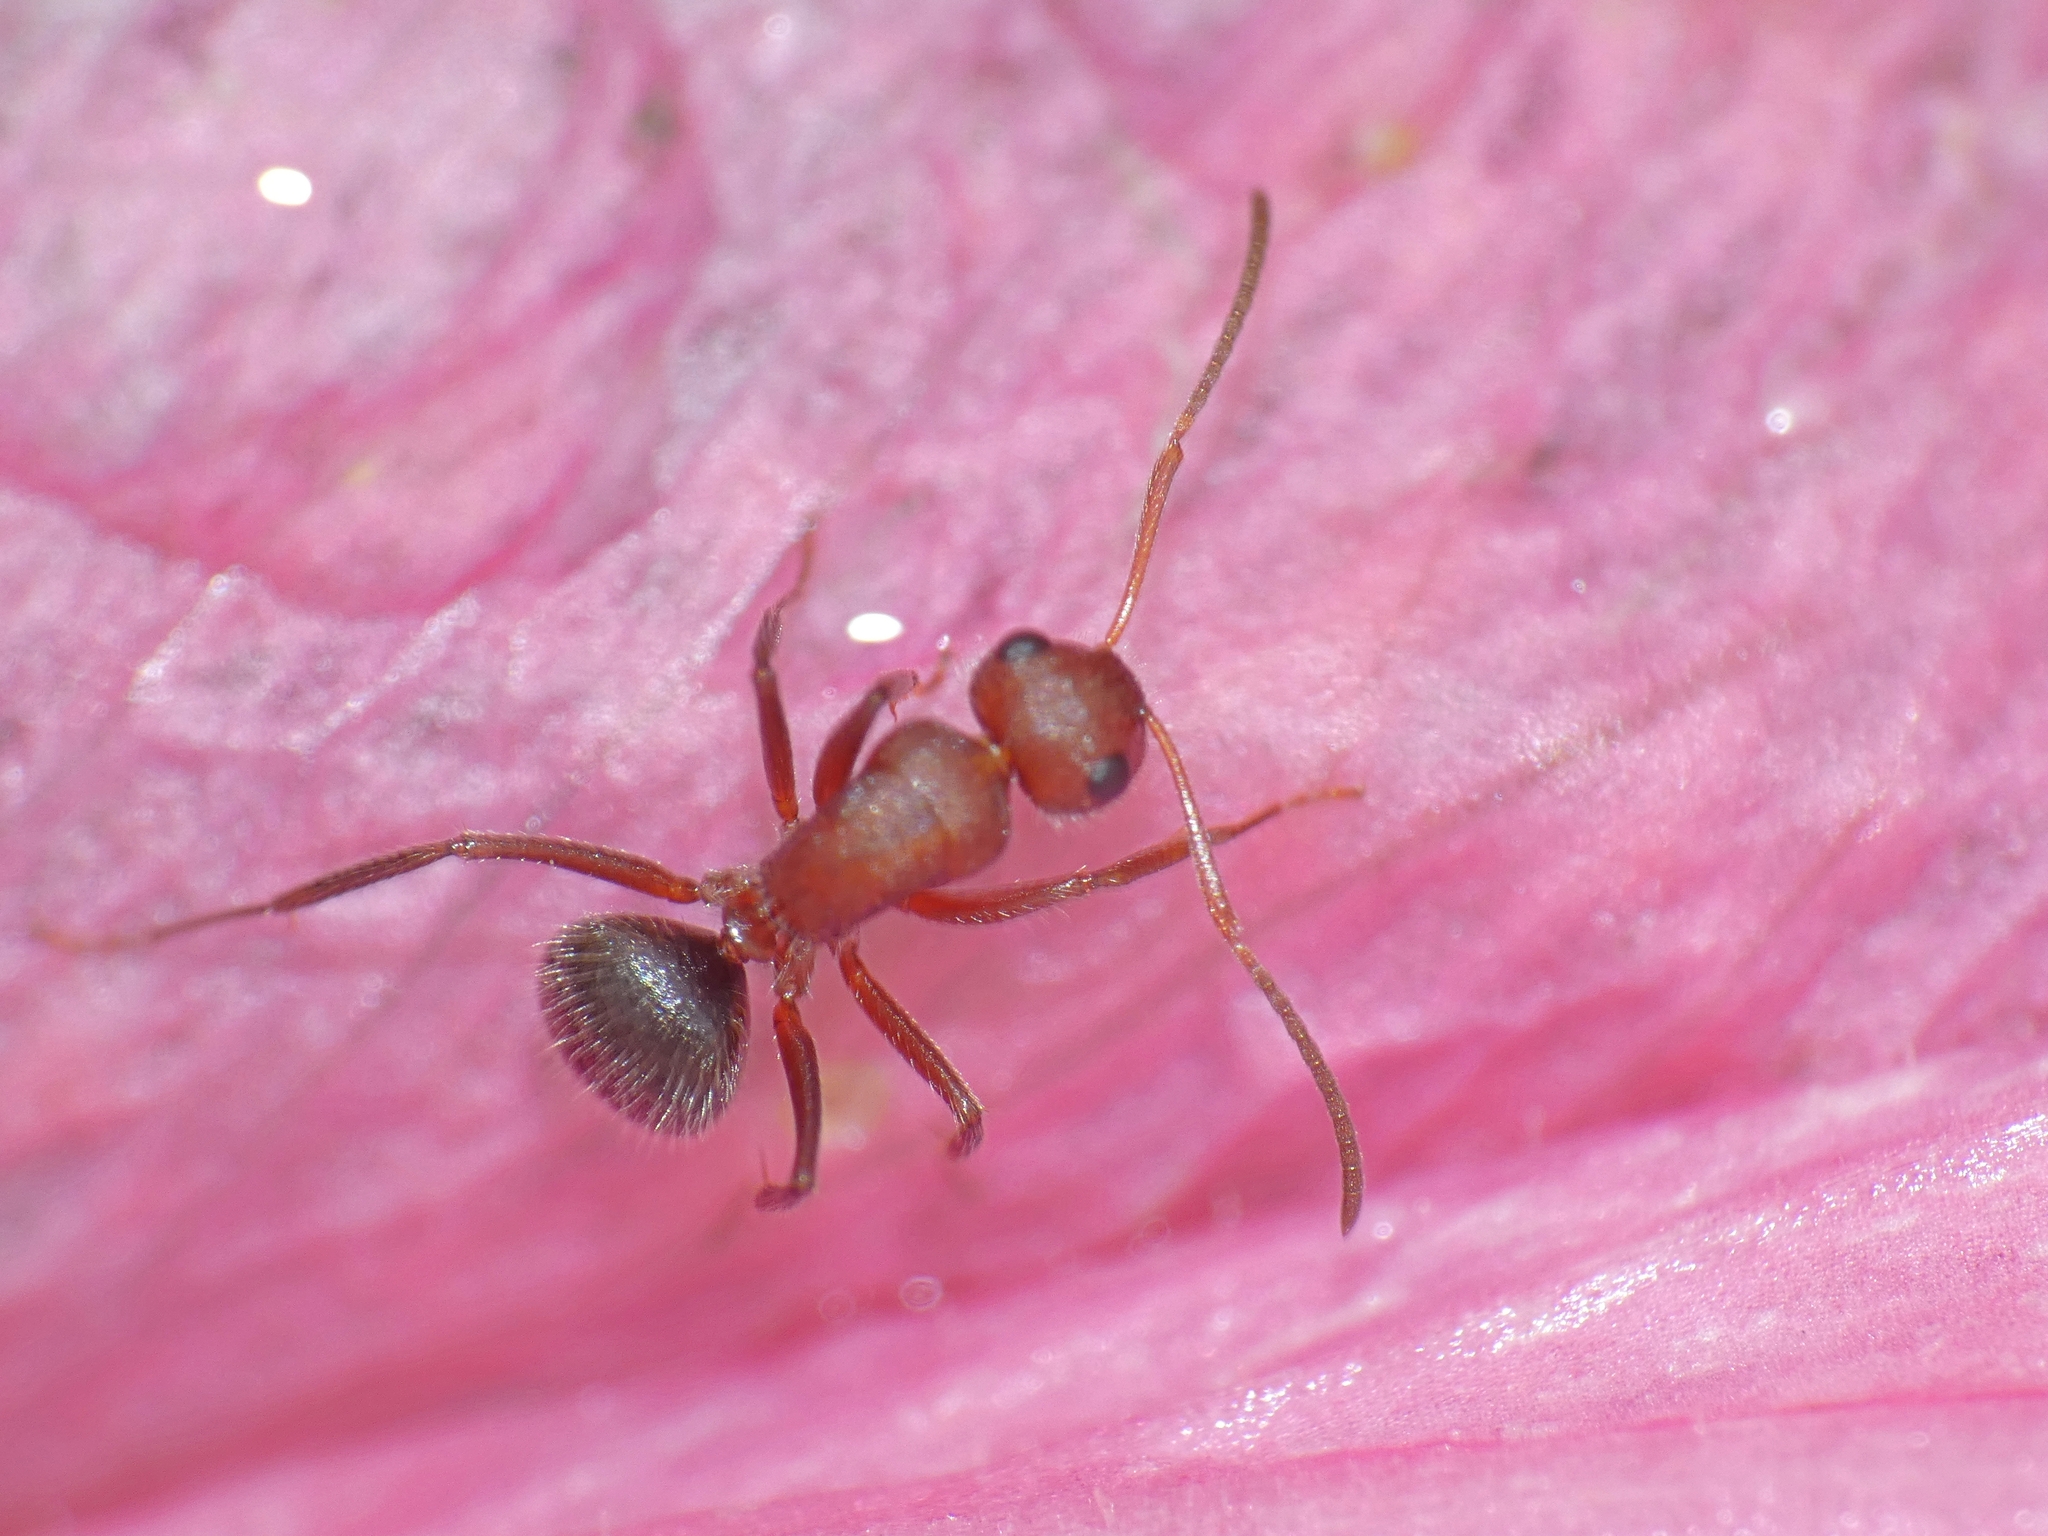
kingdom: Animalia
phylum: Arthropoda
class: Insecta
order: Hymenoptera
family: Formicidae
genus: Camponotus
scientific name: Camponotus planatus
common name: Compact carpenter ant
